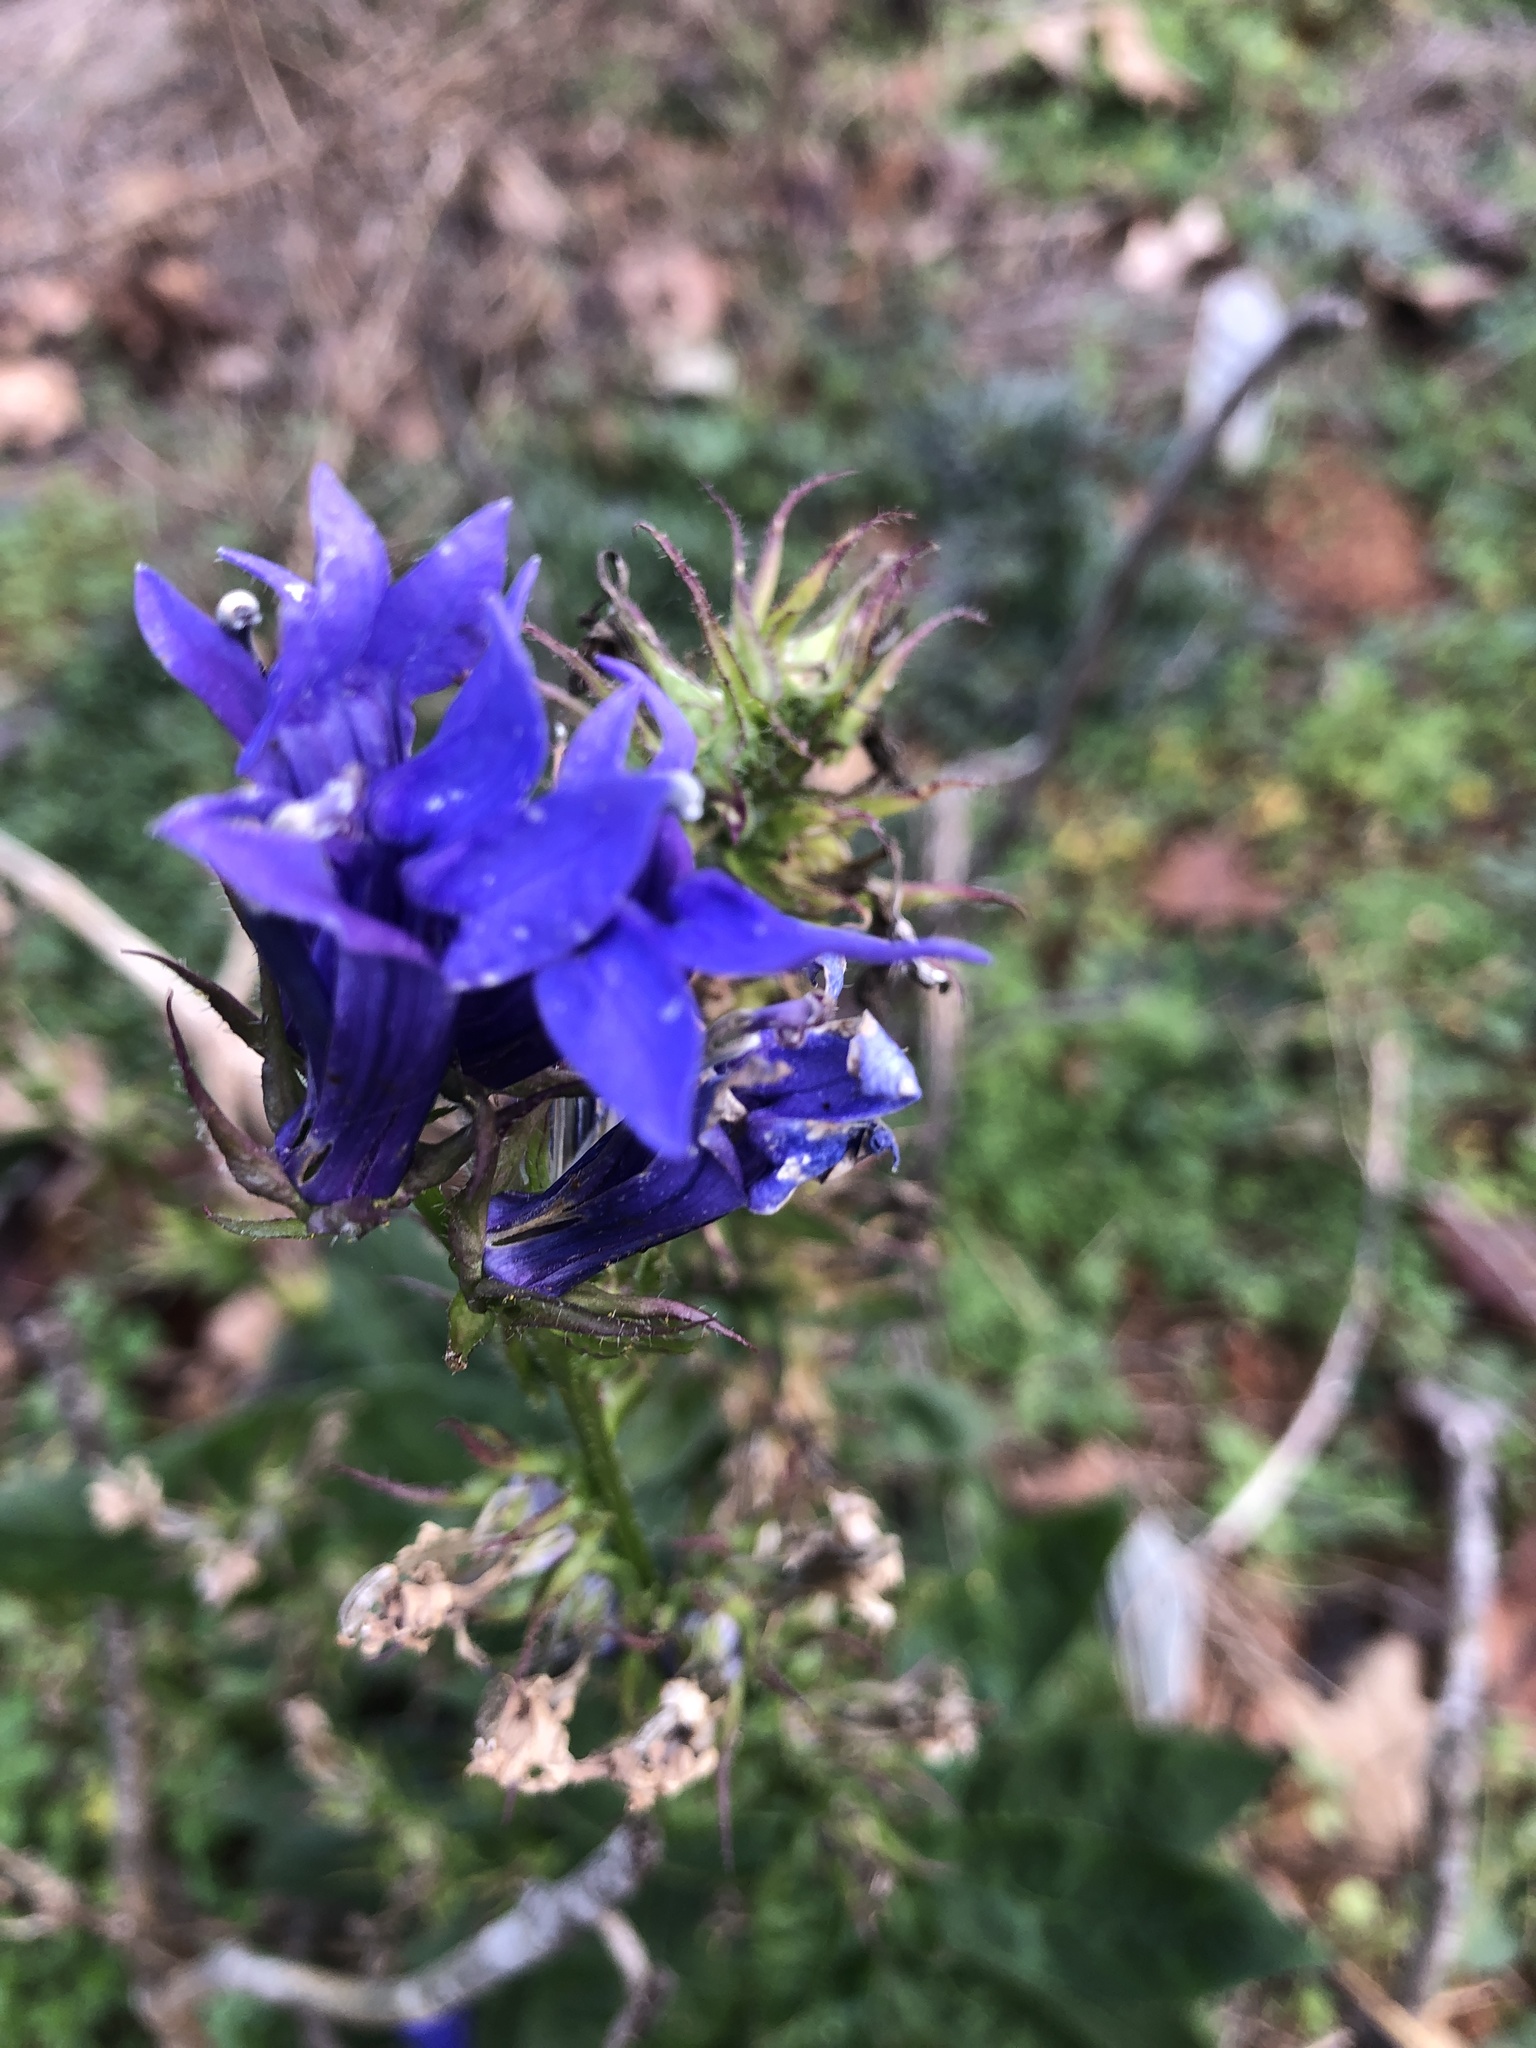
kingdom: Plantae
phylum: Tracheophyta
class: Magnoliopsida
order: Asterales
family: Campanulaceae
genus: Lobelia
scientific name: Lobelia siphilitica
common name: Great lobelia
